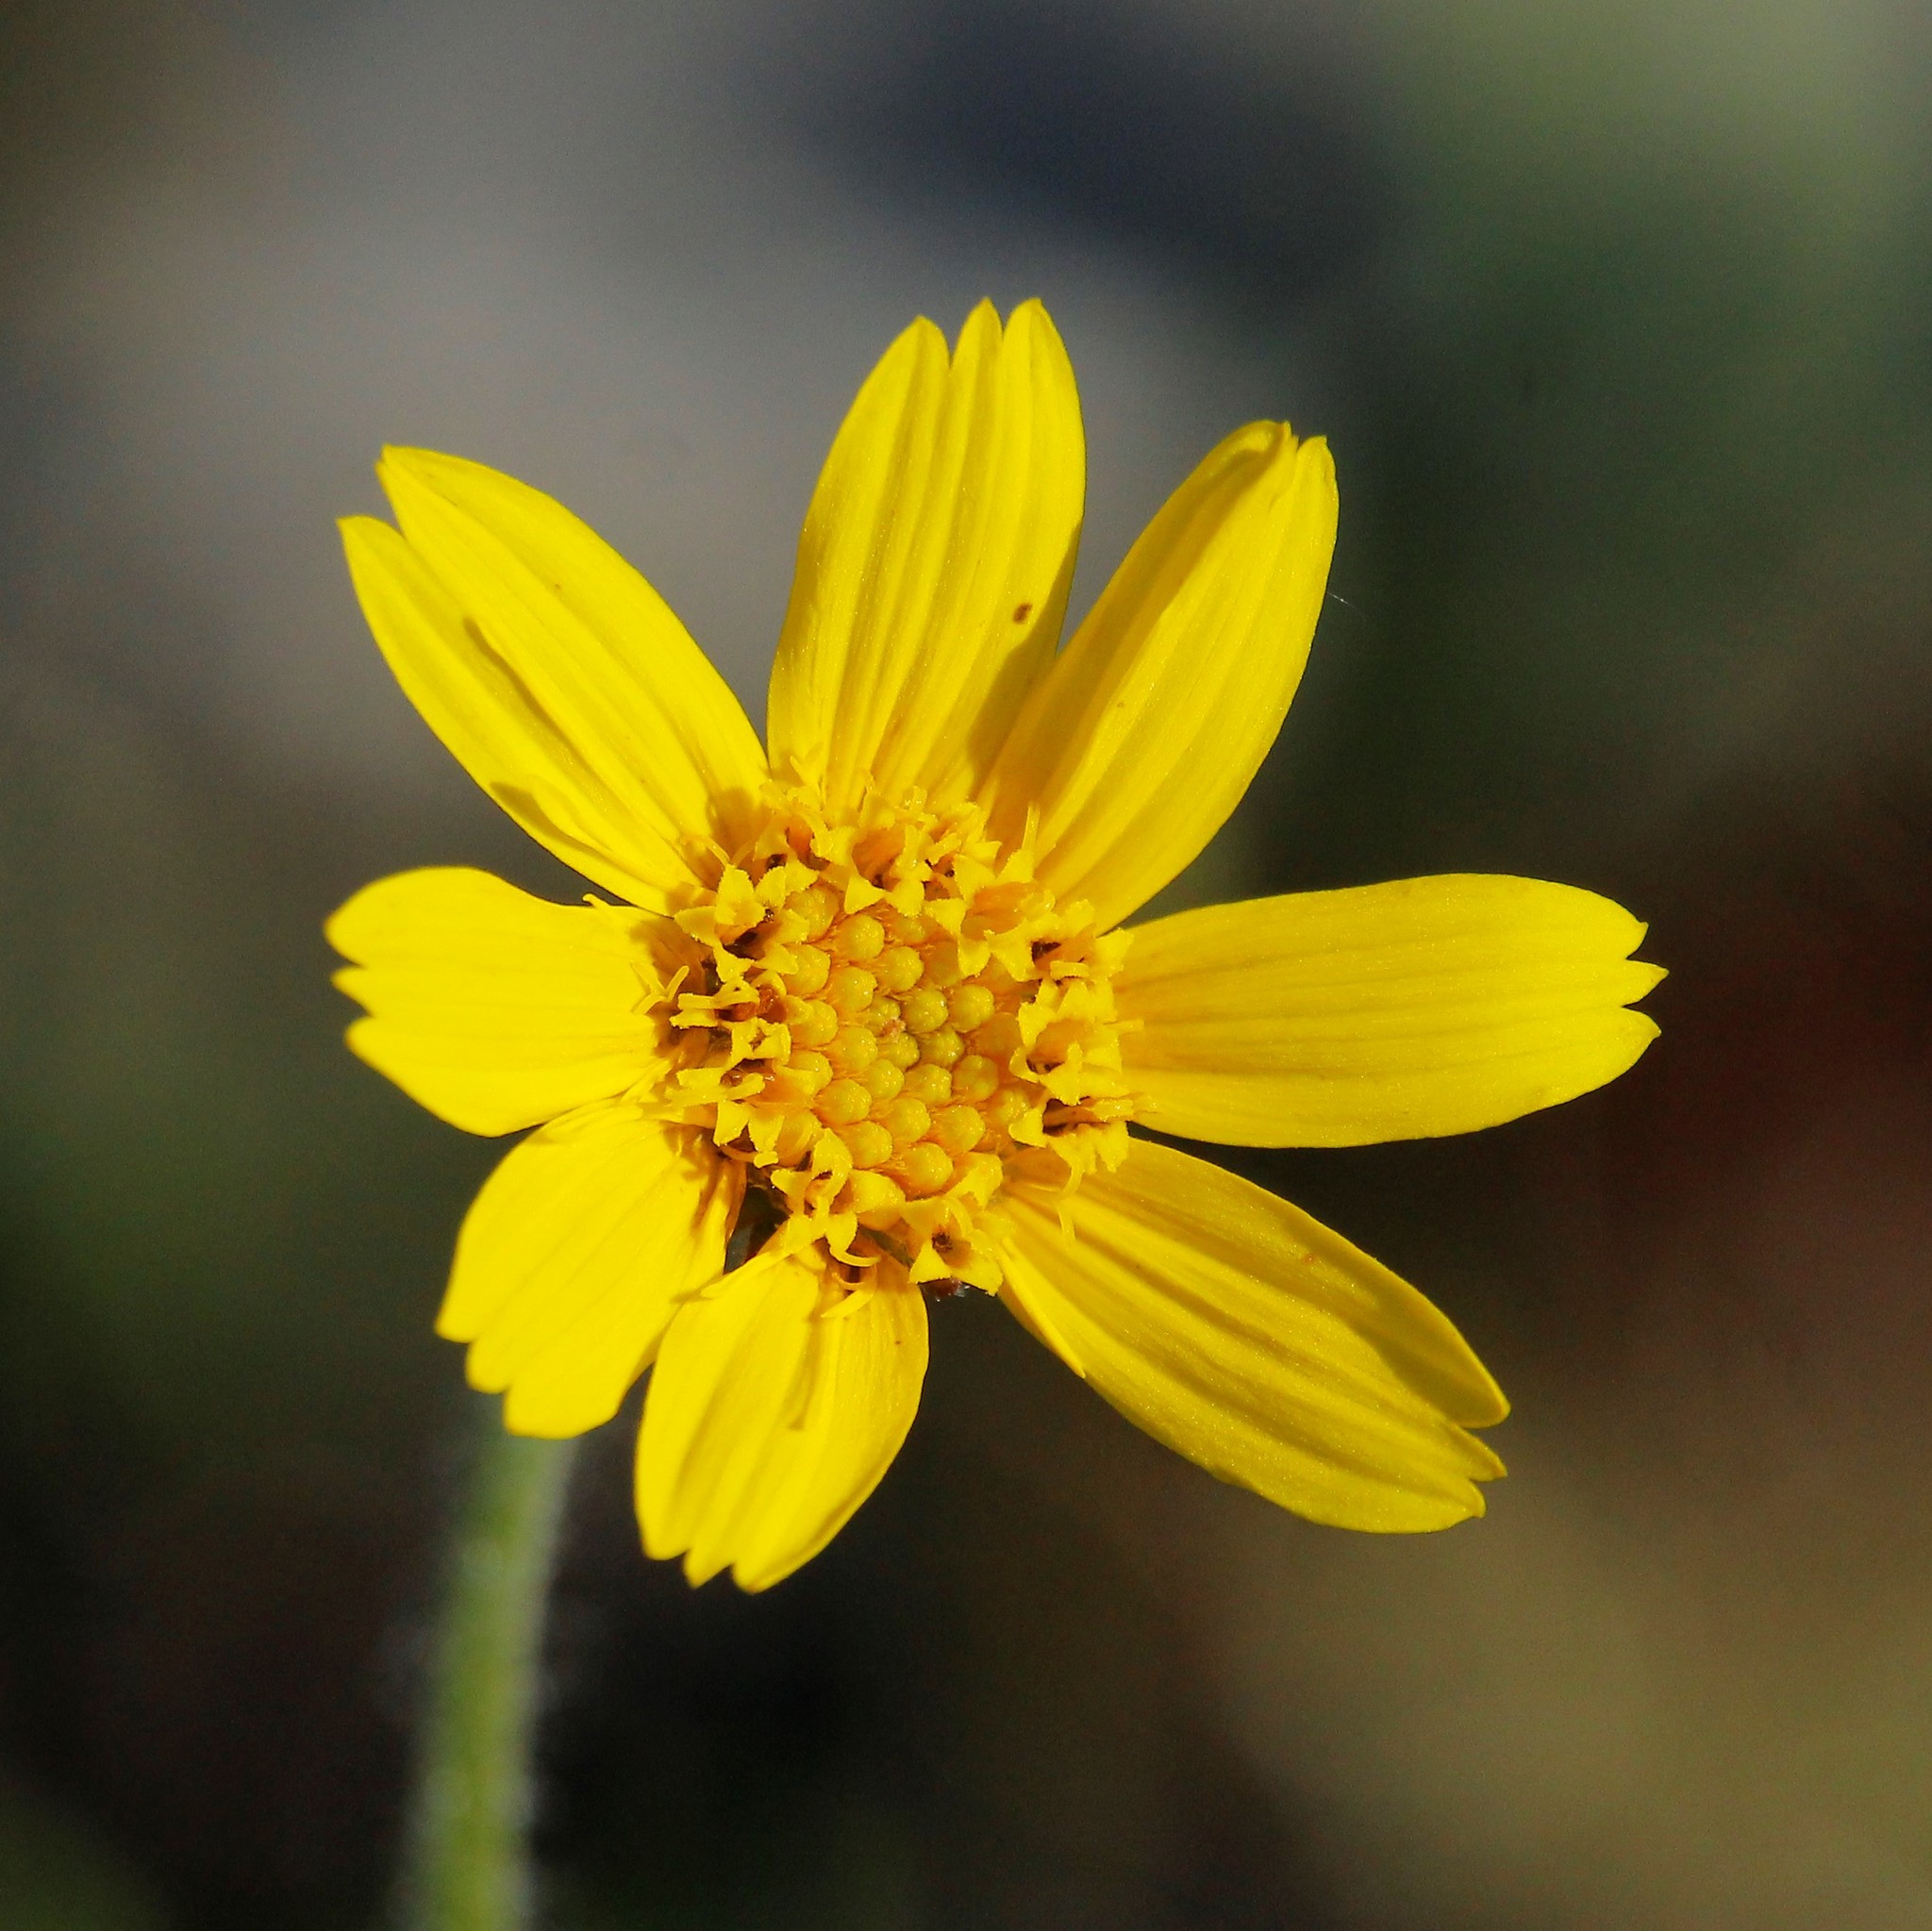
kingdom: Plantae
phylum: Tracheophyta
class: Magnoliopsida
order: Asterales
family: Asteraceae
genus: Arnica
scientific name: Arnica angustifolia
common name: Arctic arnica
